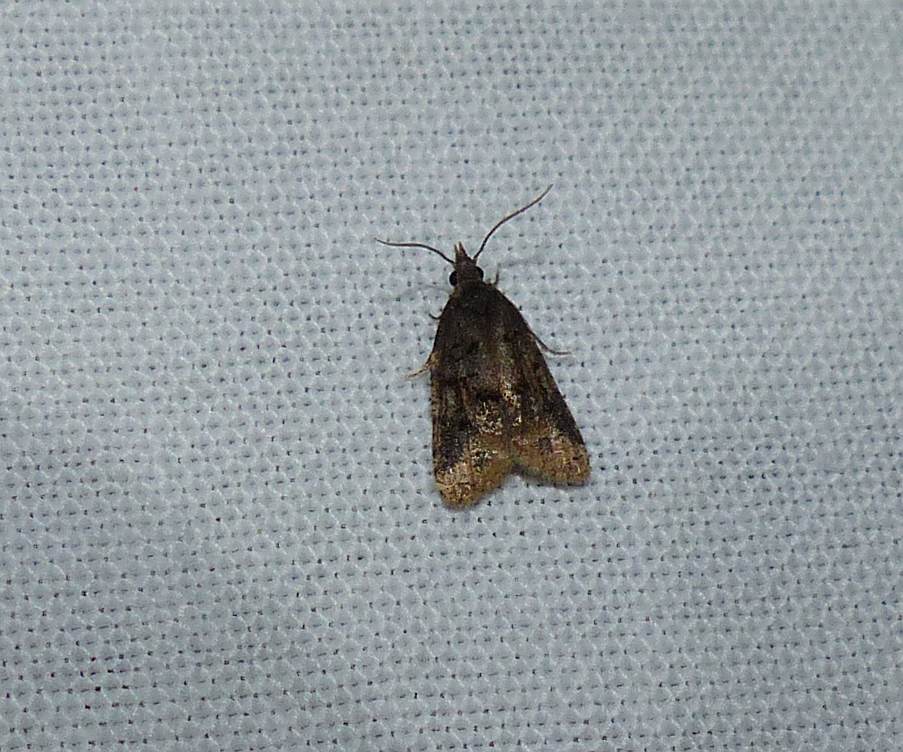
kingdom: Animalia
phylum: Arthropoda
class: Insecta
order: Lepidoptera
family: Tortricidae
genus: Platynota
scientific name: Platynota semiustana
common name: Singed platynota
